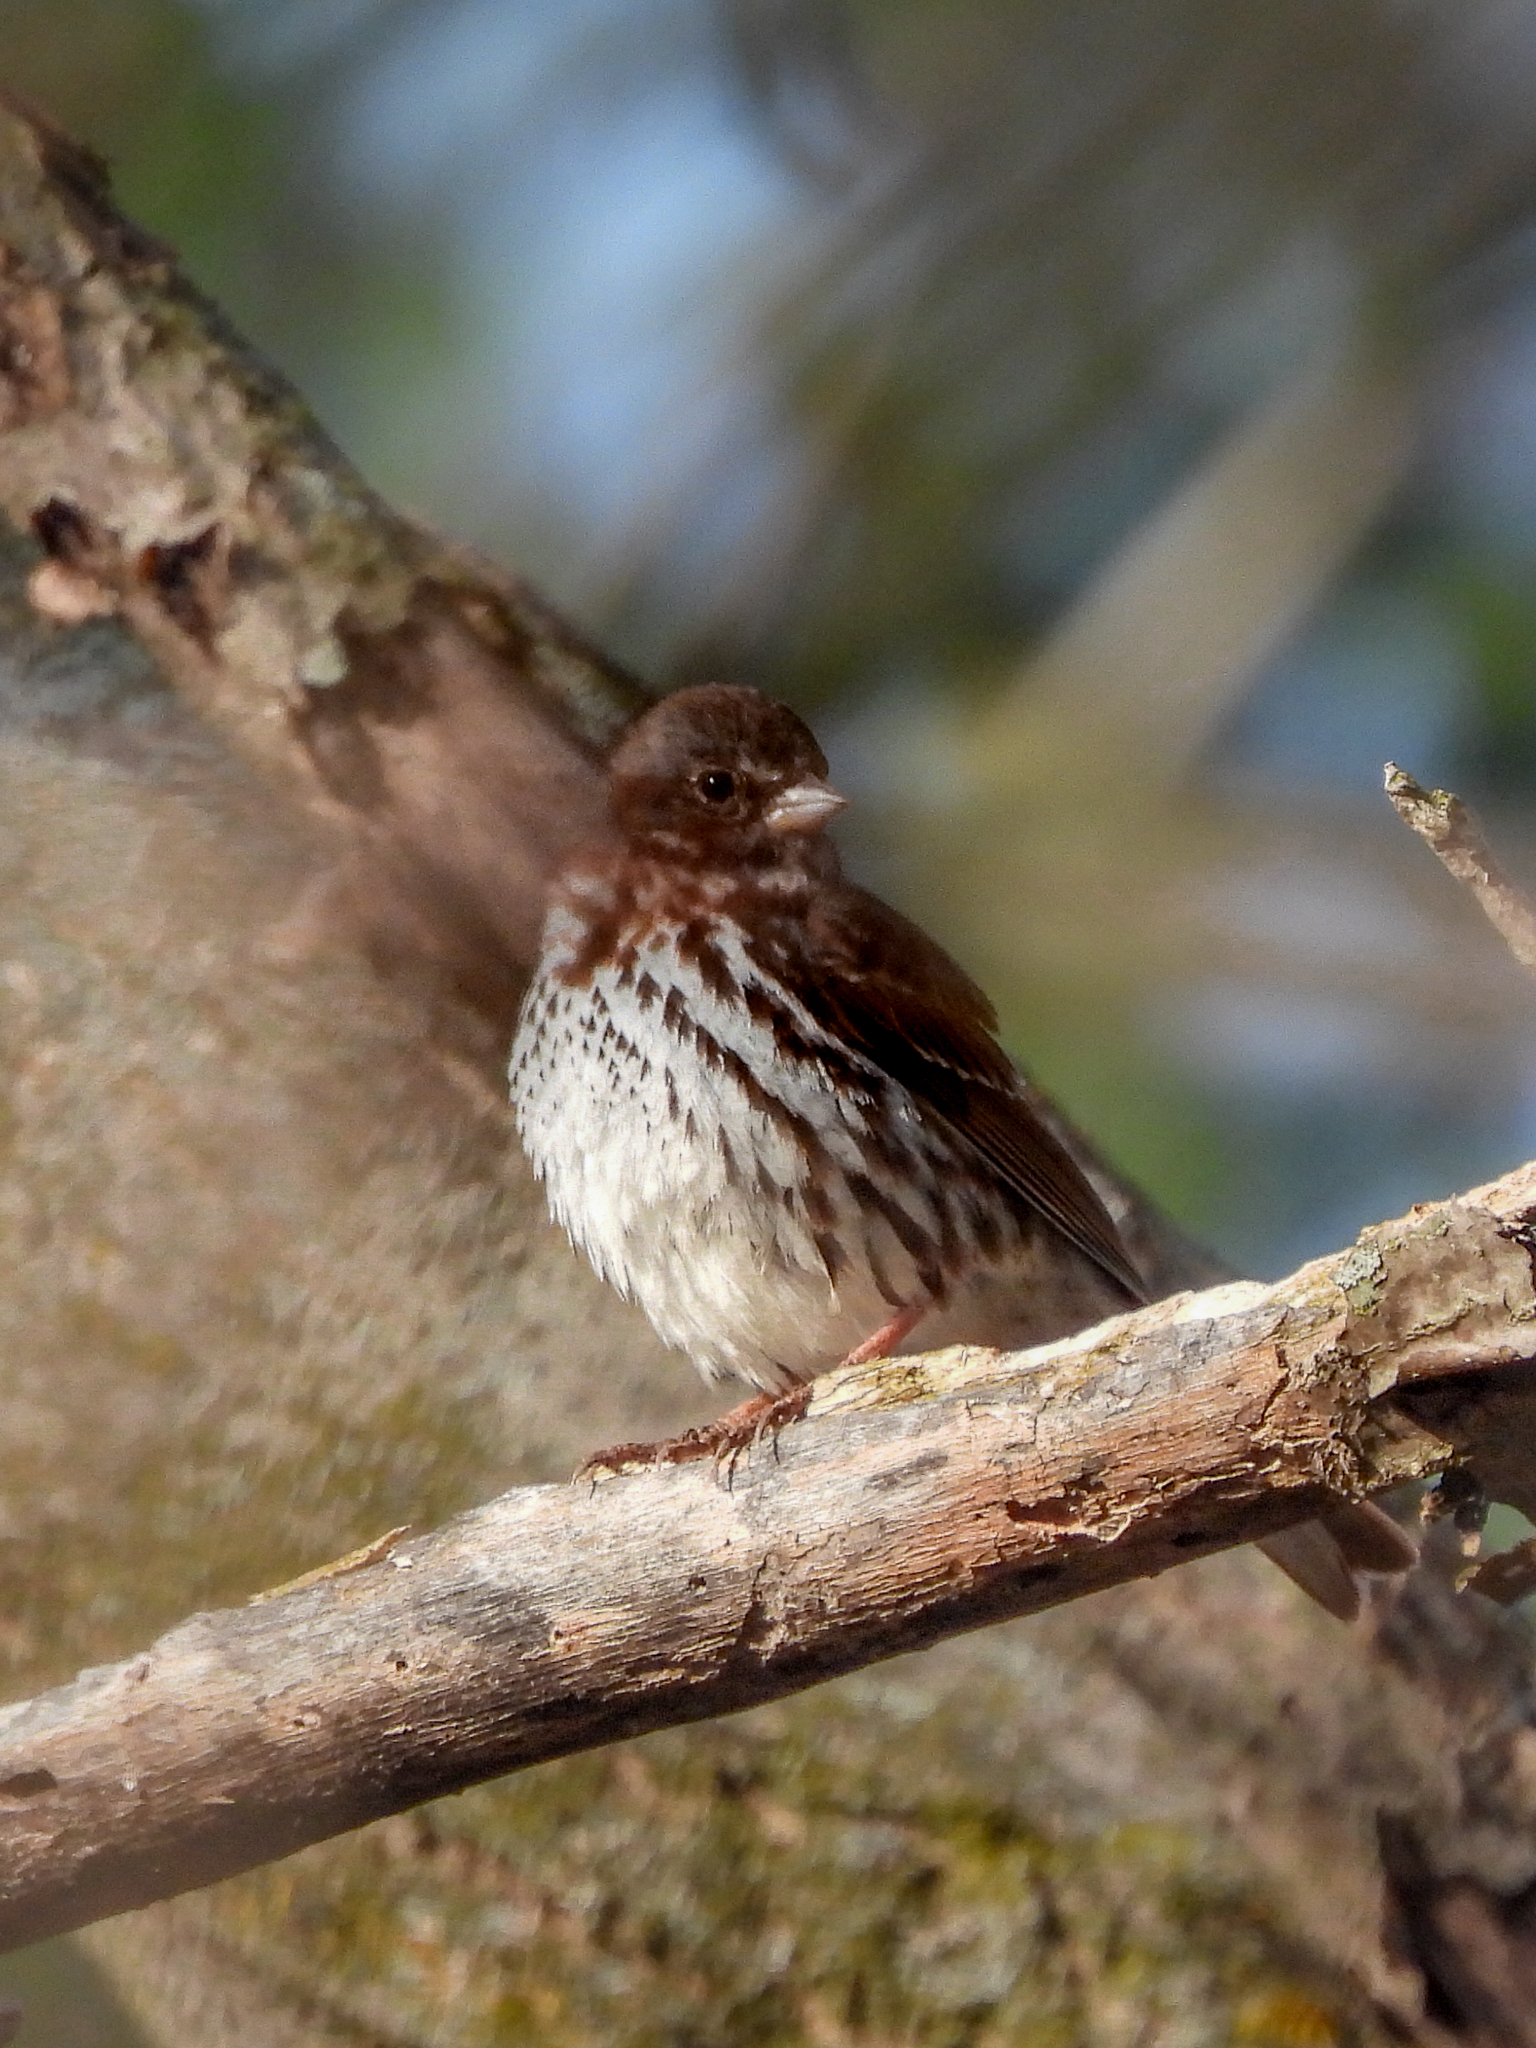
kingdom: Animalia
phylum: Chordata
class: Aves
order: Passeriformes
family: Passerellidae
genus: Passerella
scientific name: Passerella iliaca
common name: Fox sparrow
